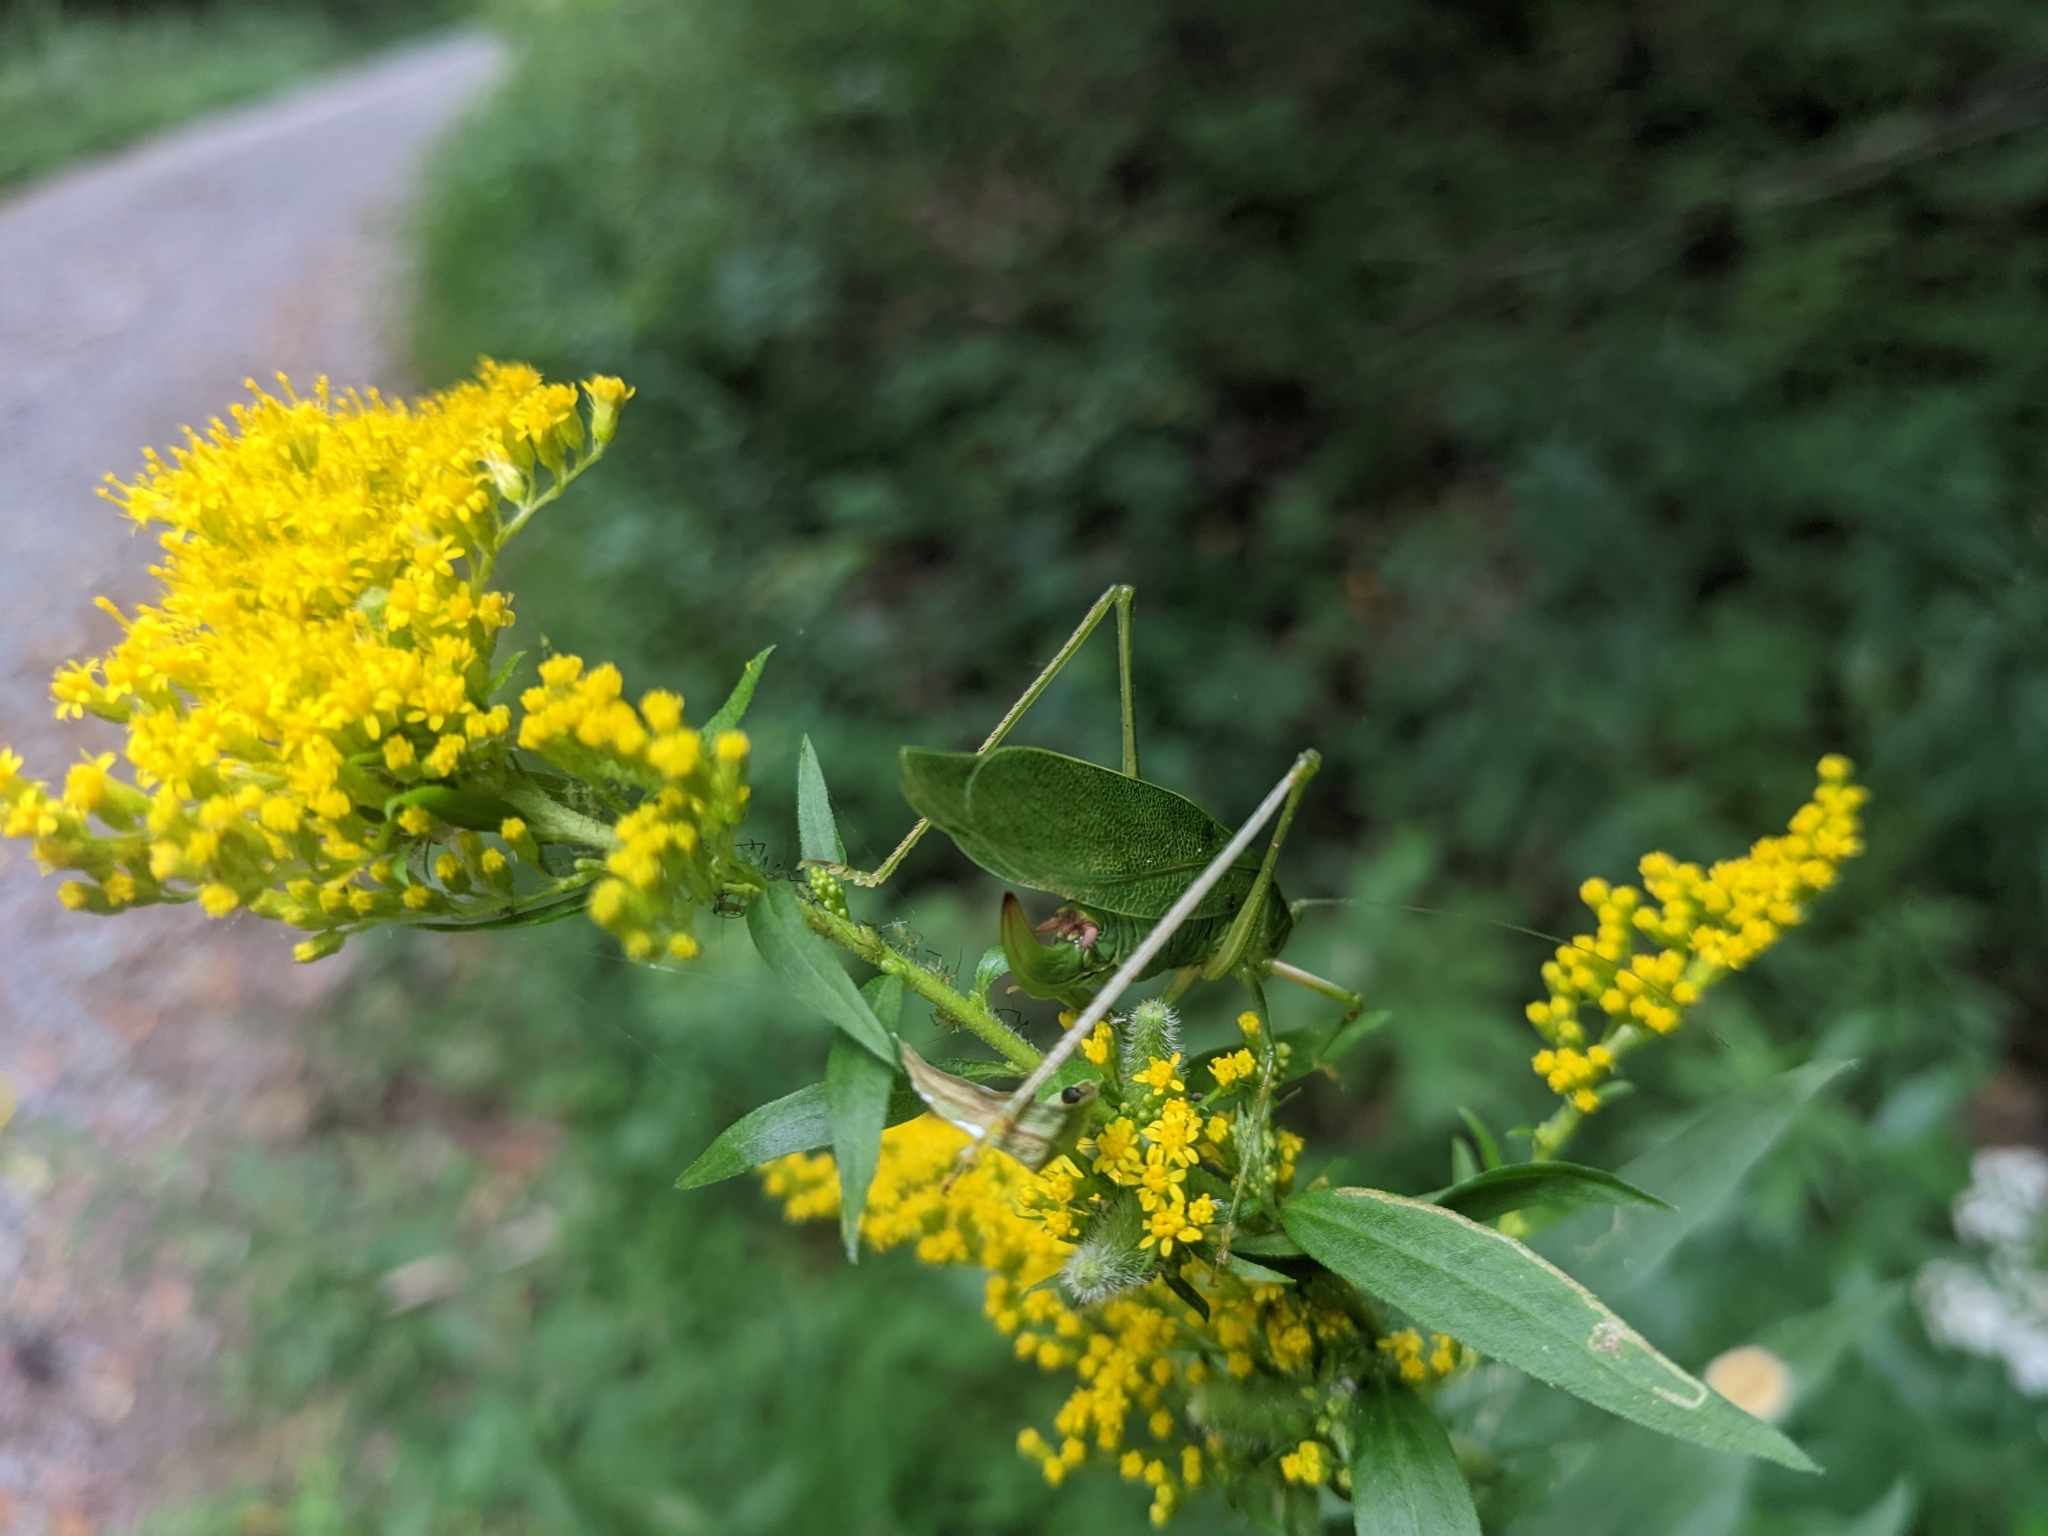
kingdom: Animalia
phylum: Arthropoda
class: Insecta
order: Orthoptera
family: Tettigoniidae
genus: Scudderia
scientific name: Scudderia septentrionalis
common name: Northern bush-katydid
